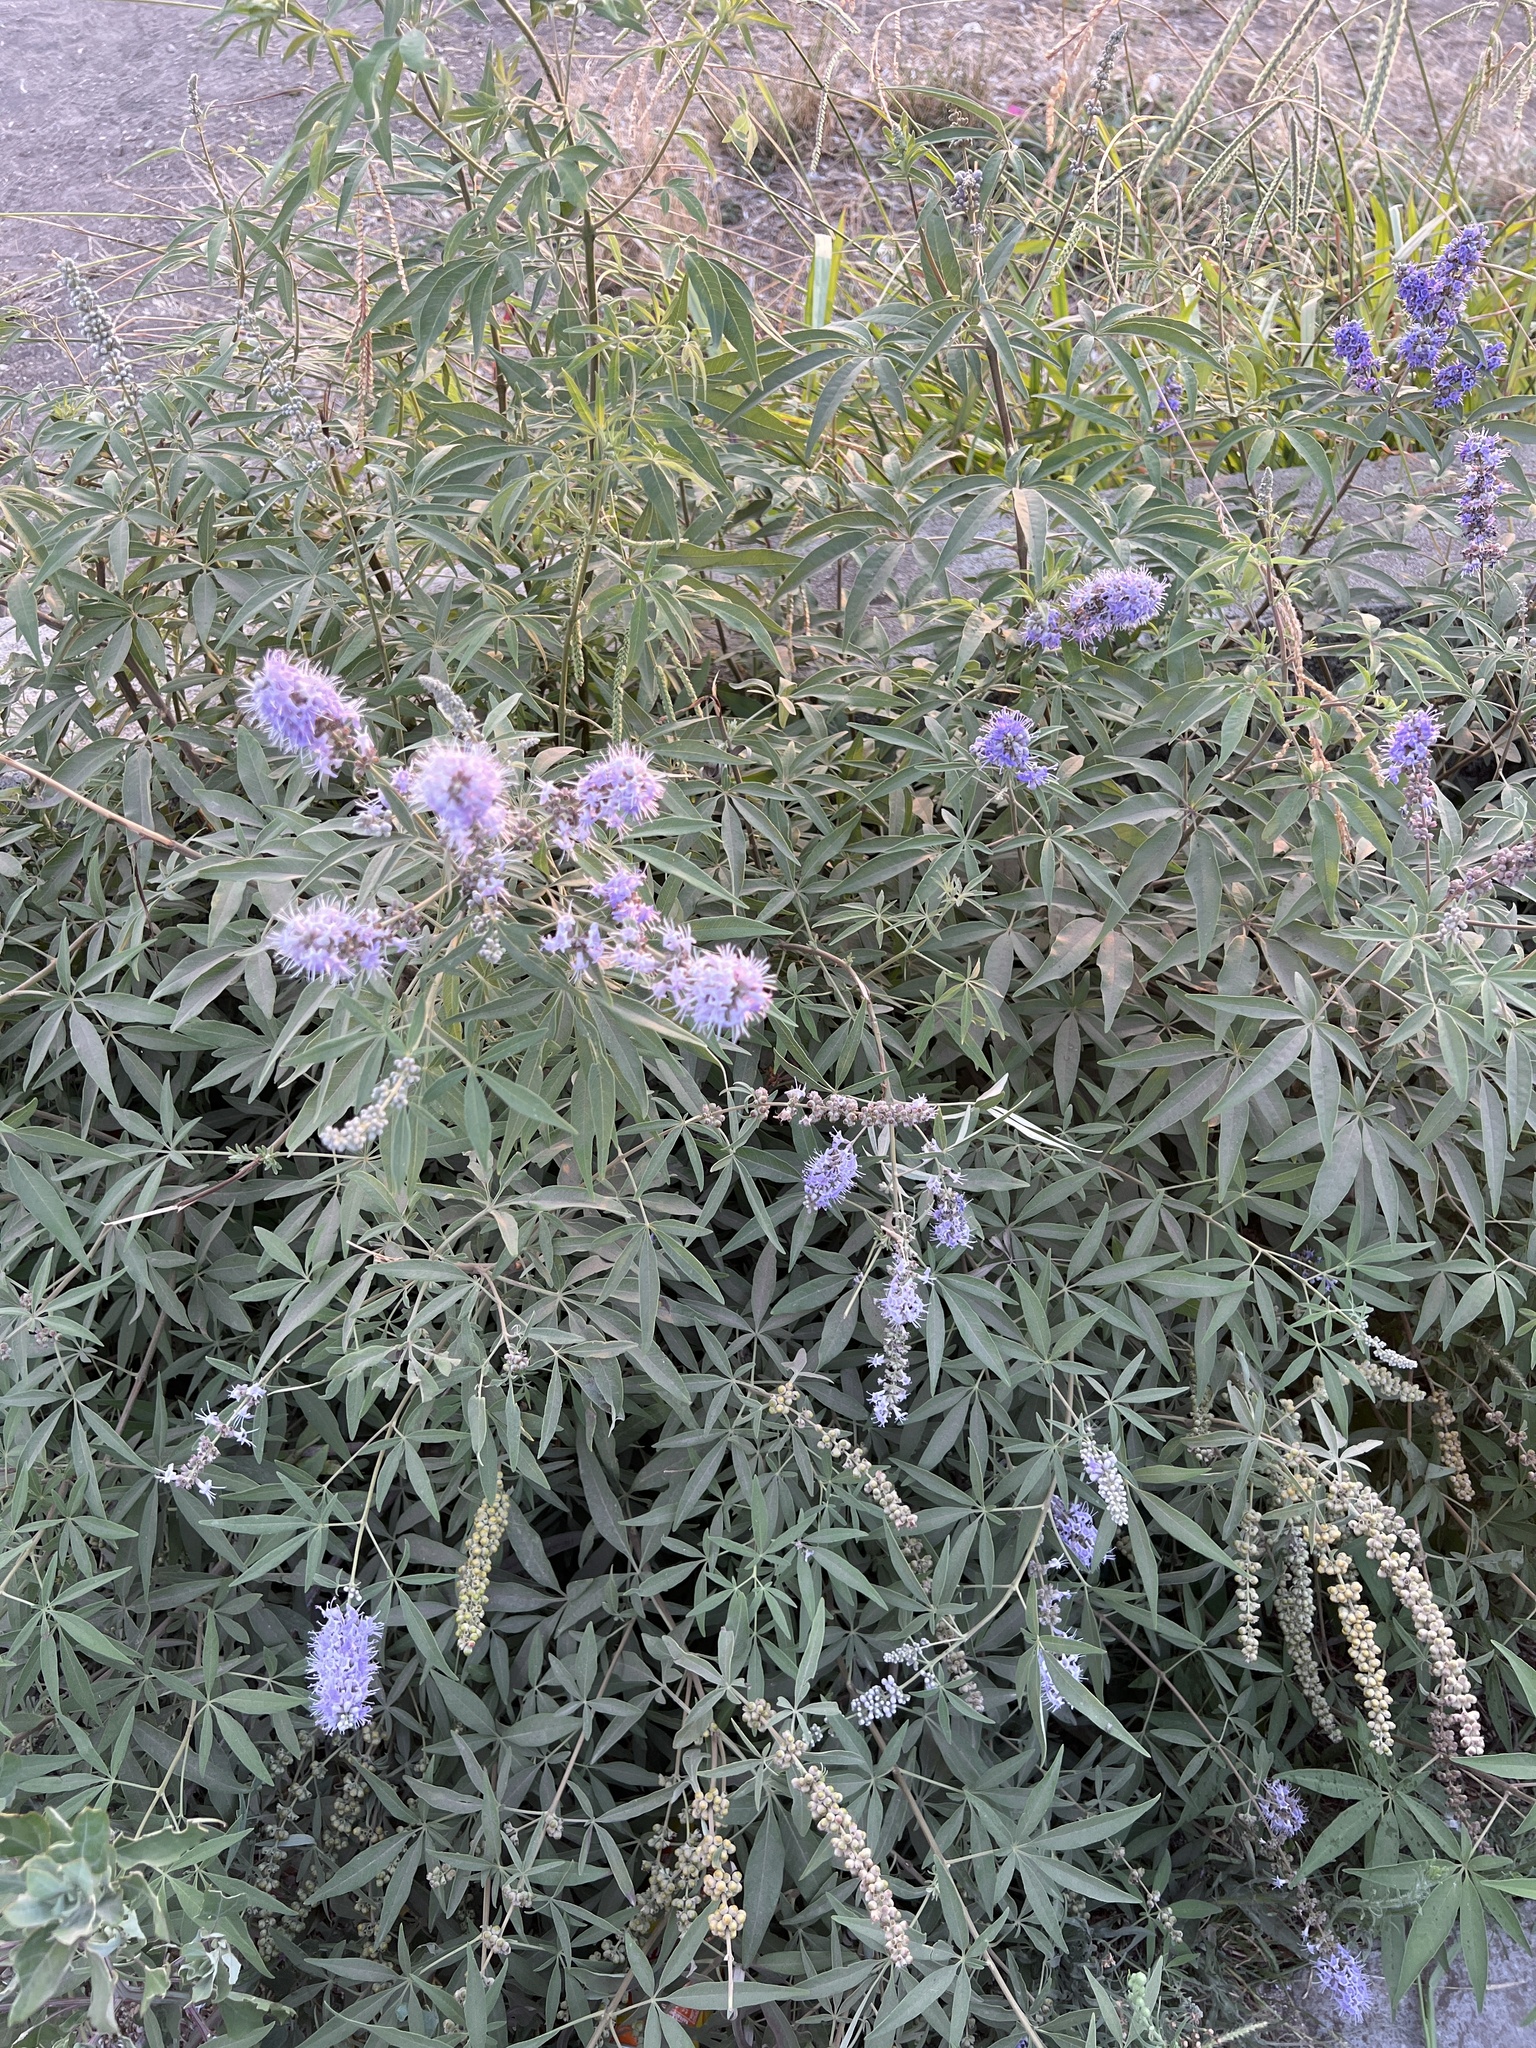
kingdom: Plantae
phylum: Tracheophyta
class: Magnoliopsida
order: Lamiales
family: Lamiaceae
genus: Vitex
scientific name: Vitex agnus-castus
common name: Chasteberry
